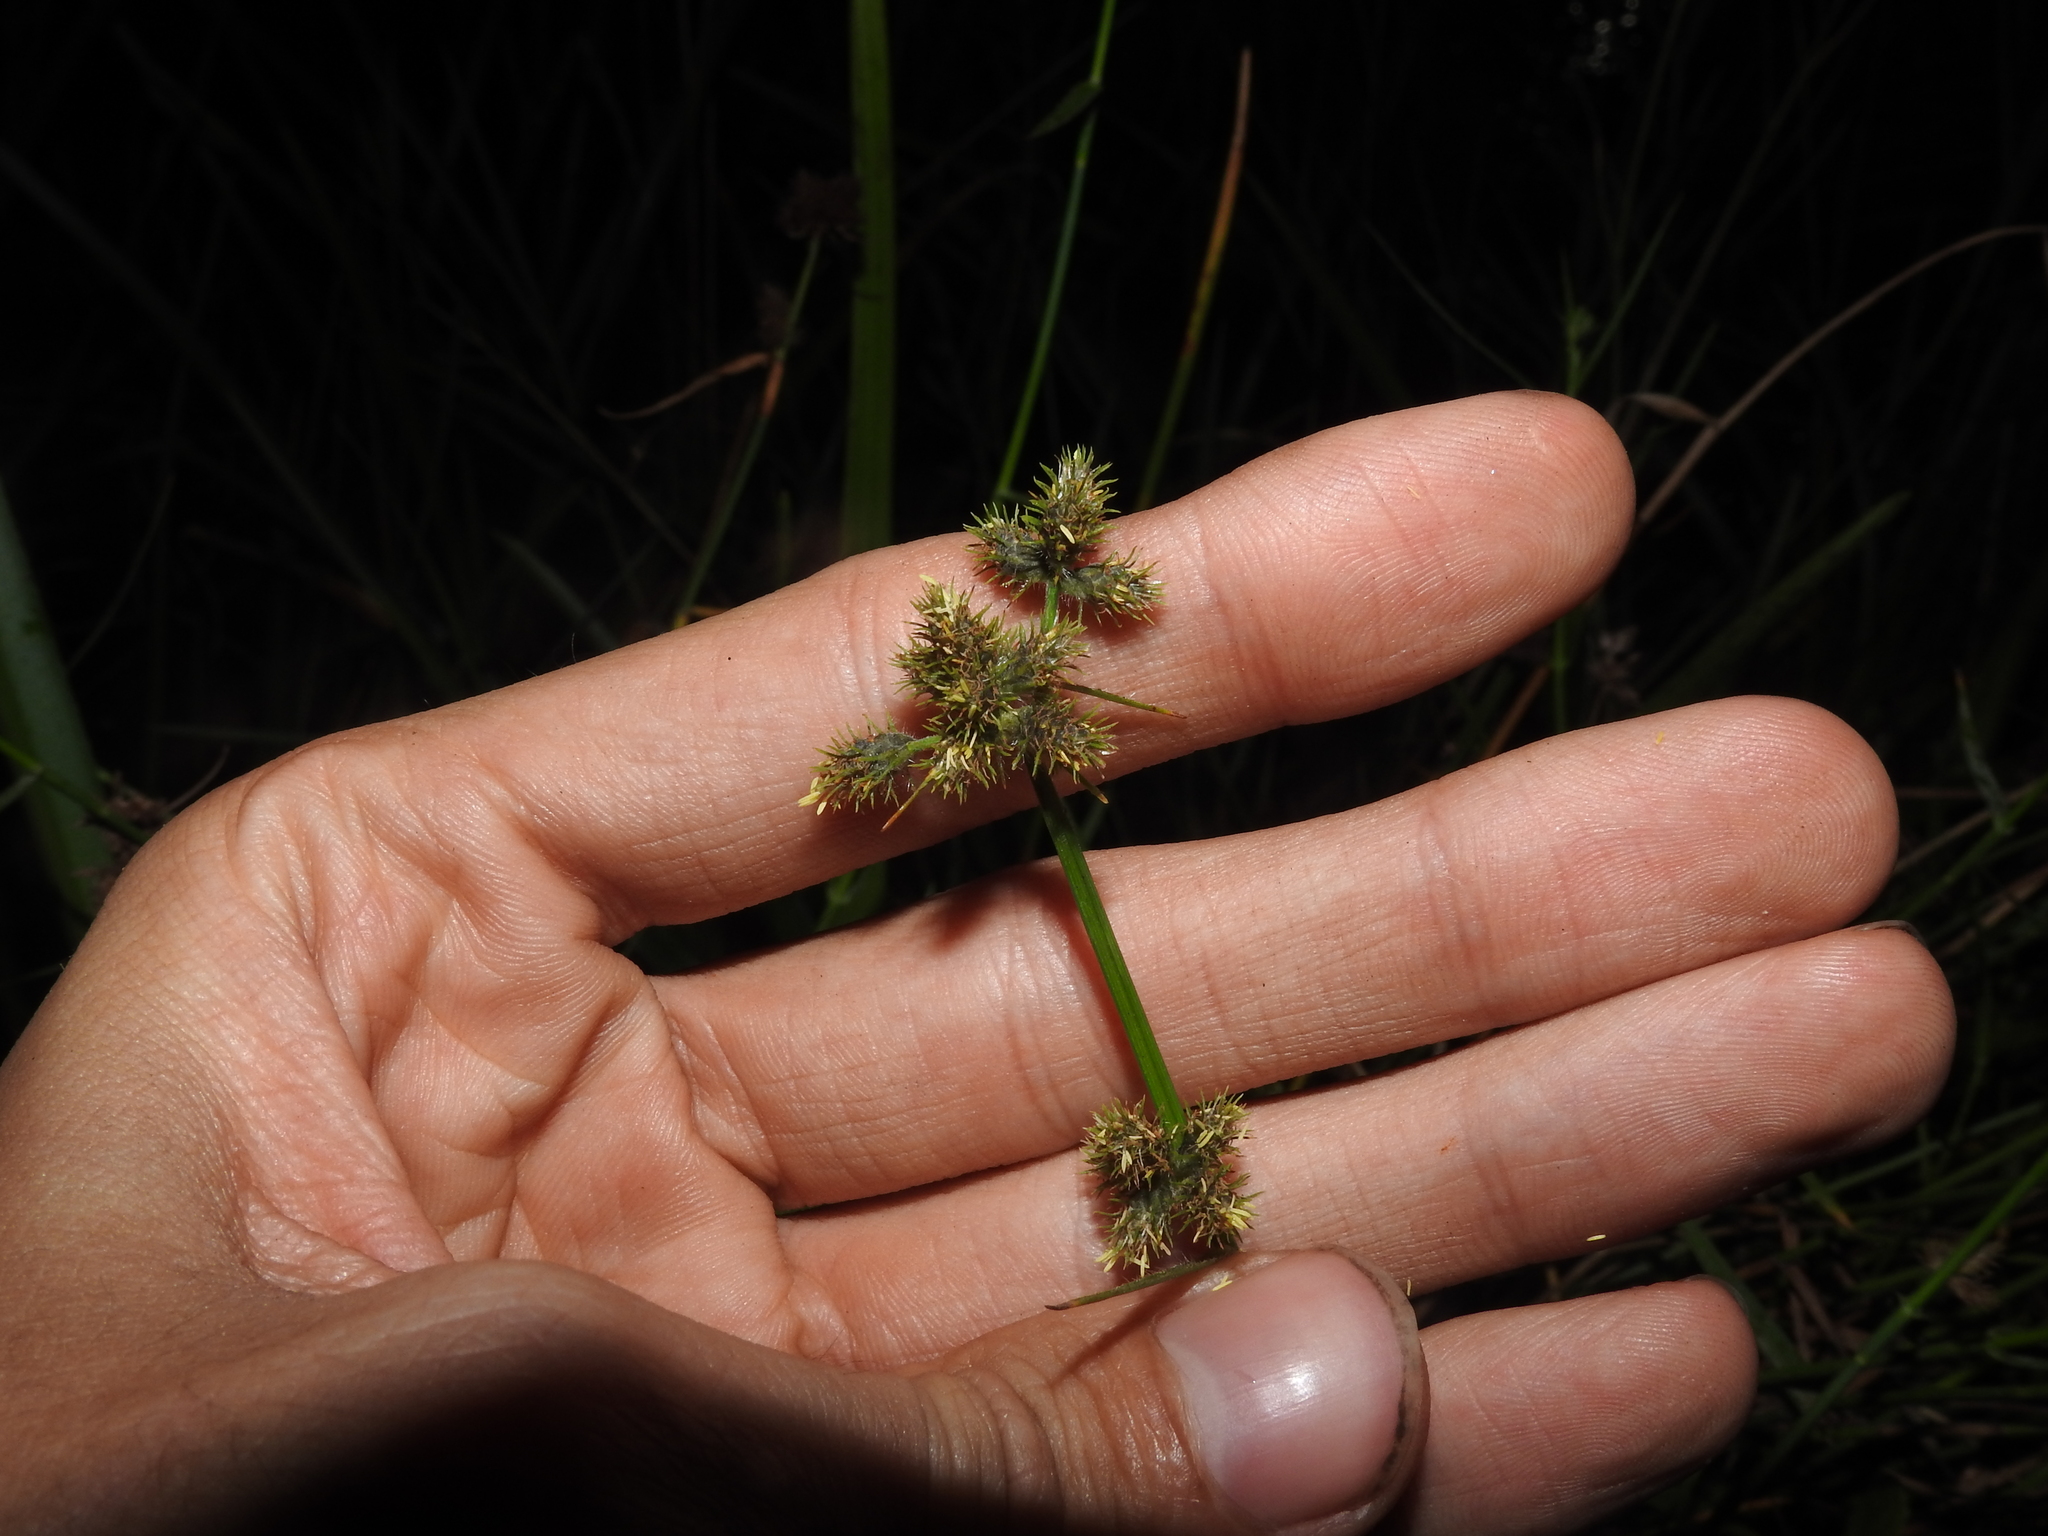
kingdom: Plantae
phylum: Tracheophyta
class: Liliopsida
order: Poales
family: Cyperaceae
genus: Fuirena
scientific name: Fuirena breviseta
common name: Saltmarsh umbrella sedge
